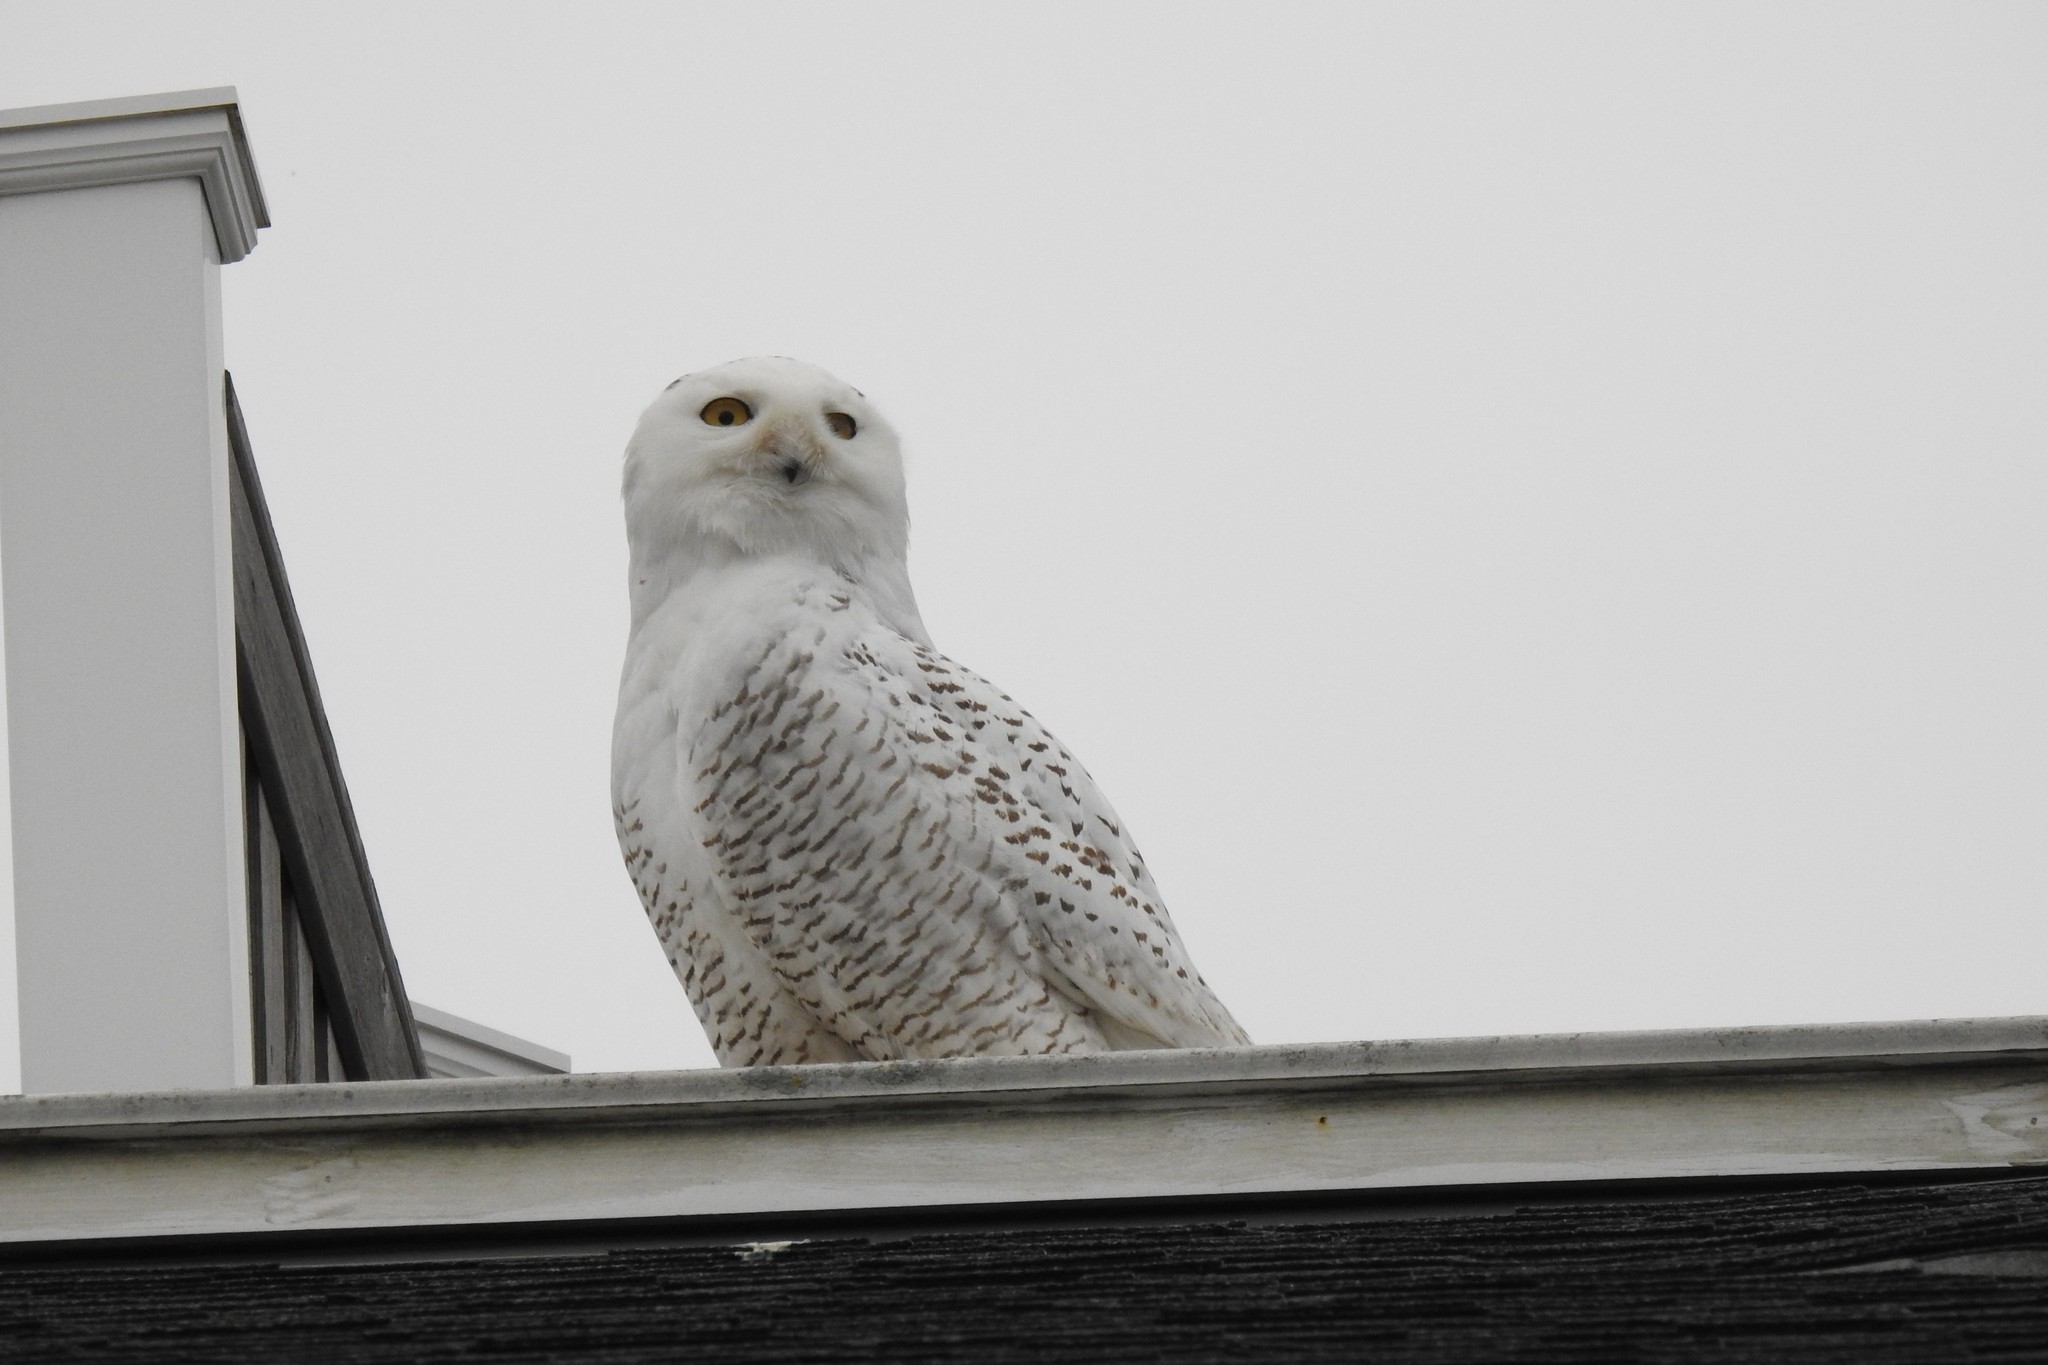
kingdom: Animalia
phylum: Chordata
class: Aves
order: Strigiformes
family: Strigidae
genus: Bubo
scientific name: Bubo scandiacus
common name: Snowy owl
